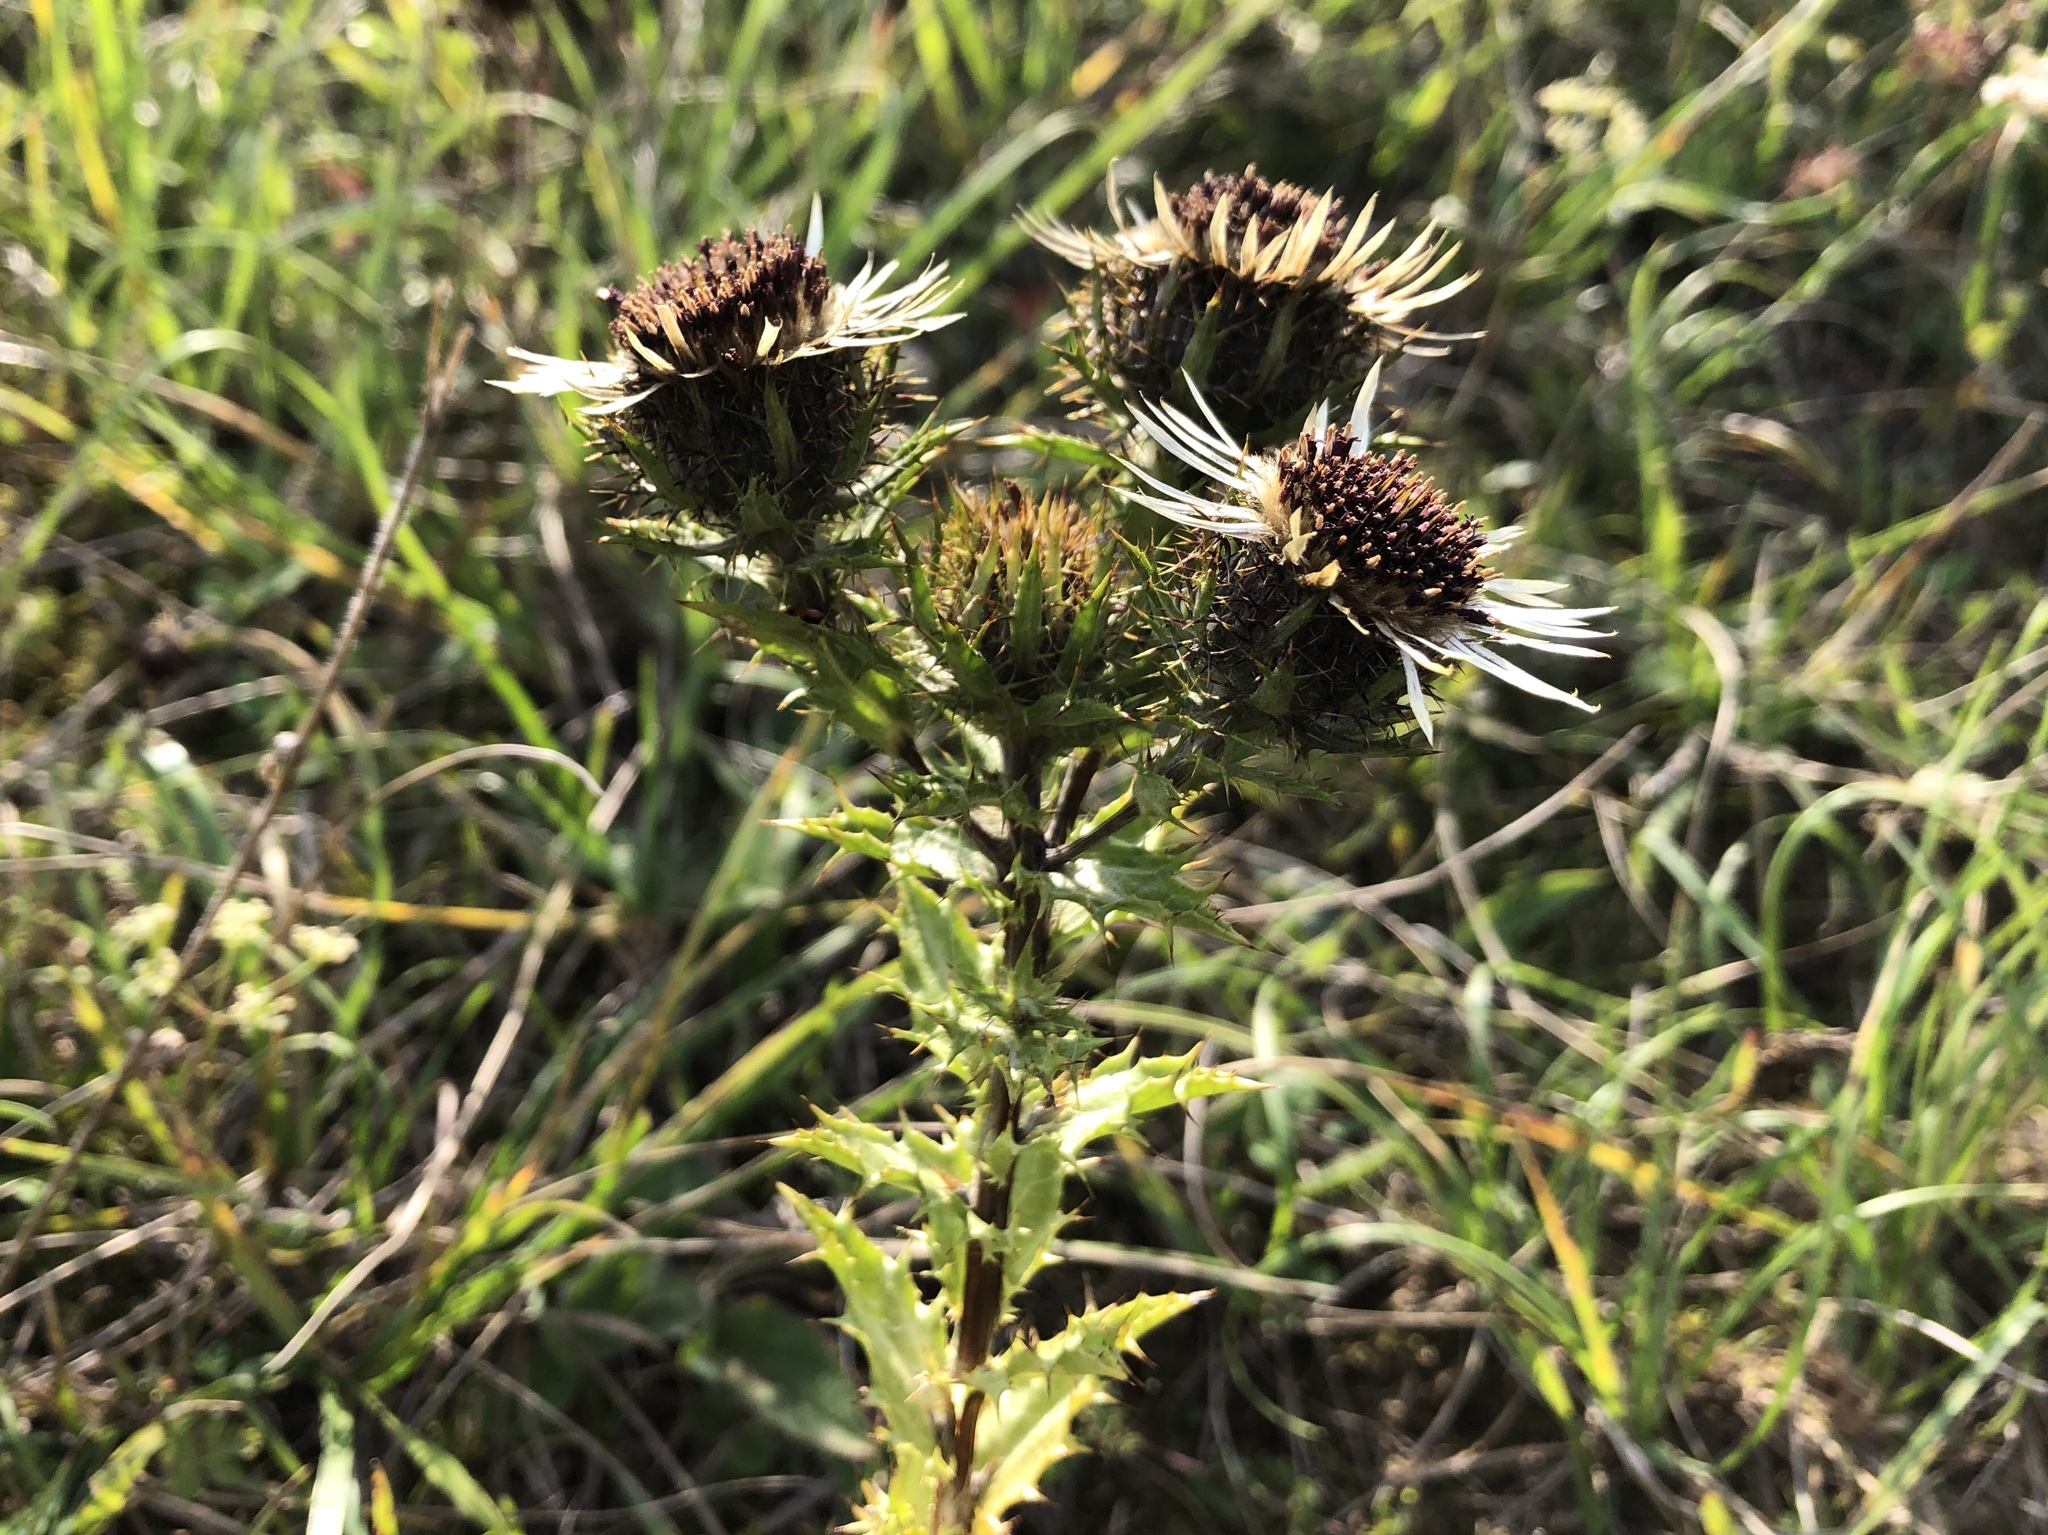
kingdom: Plantae
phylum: Tracheophyta
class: Magnoliopsida
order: Asterales
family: Asteraceae
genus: Carlina
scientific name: Carlina vulgaris
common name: Carline thistle
